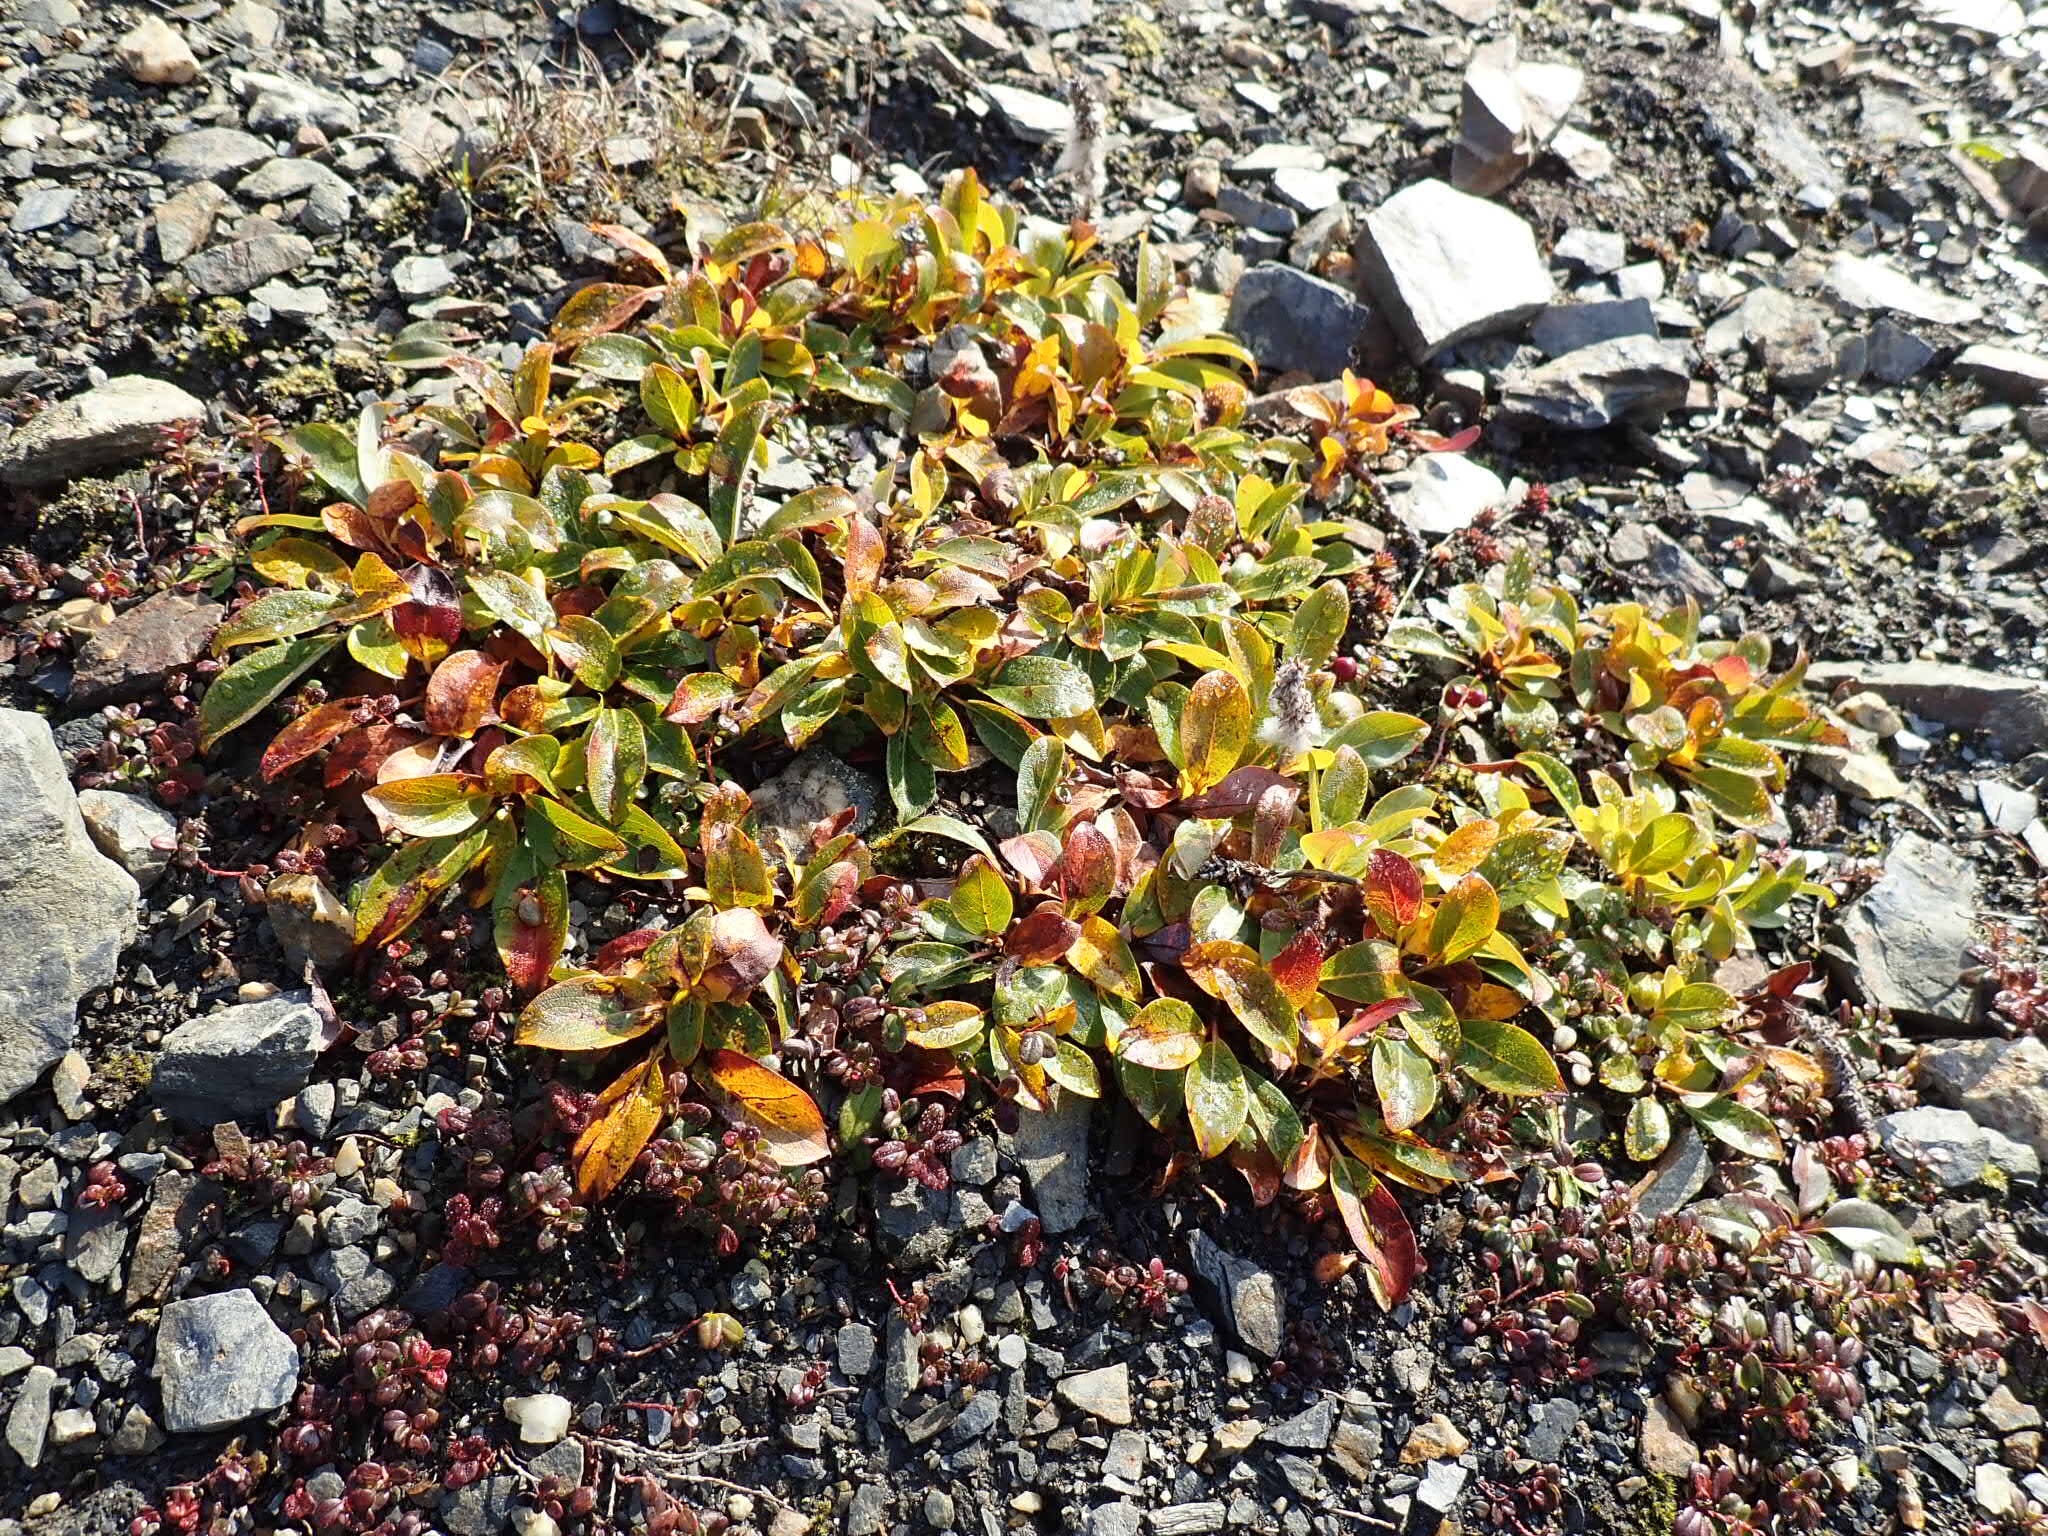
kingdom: Plantae
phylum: Tracheophyta
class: Magnoliopsida
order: Malpighiales
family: Salicaceae
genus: Salix
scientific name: Salix reticulata
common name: Net-leaved willow
